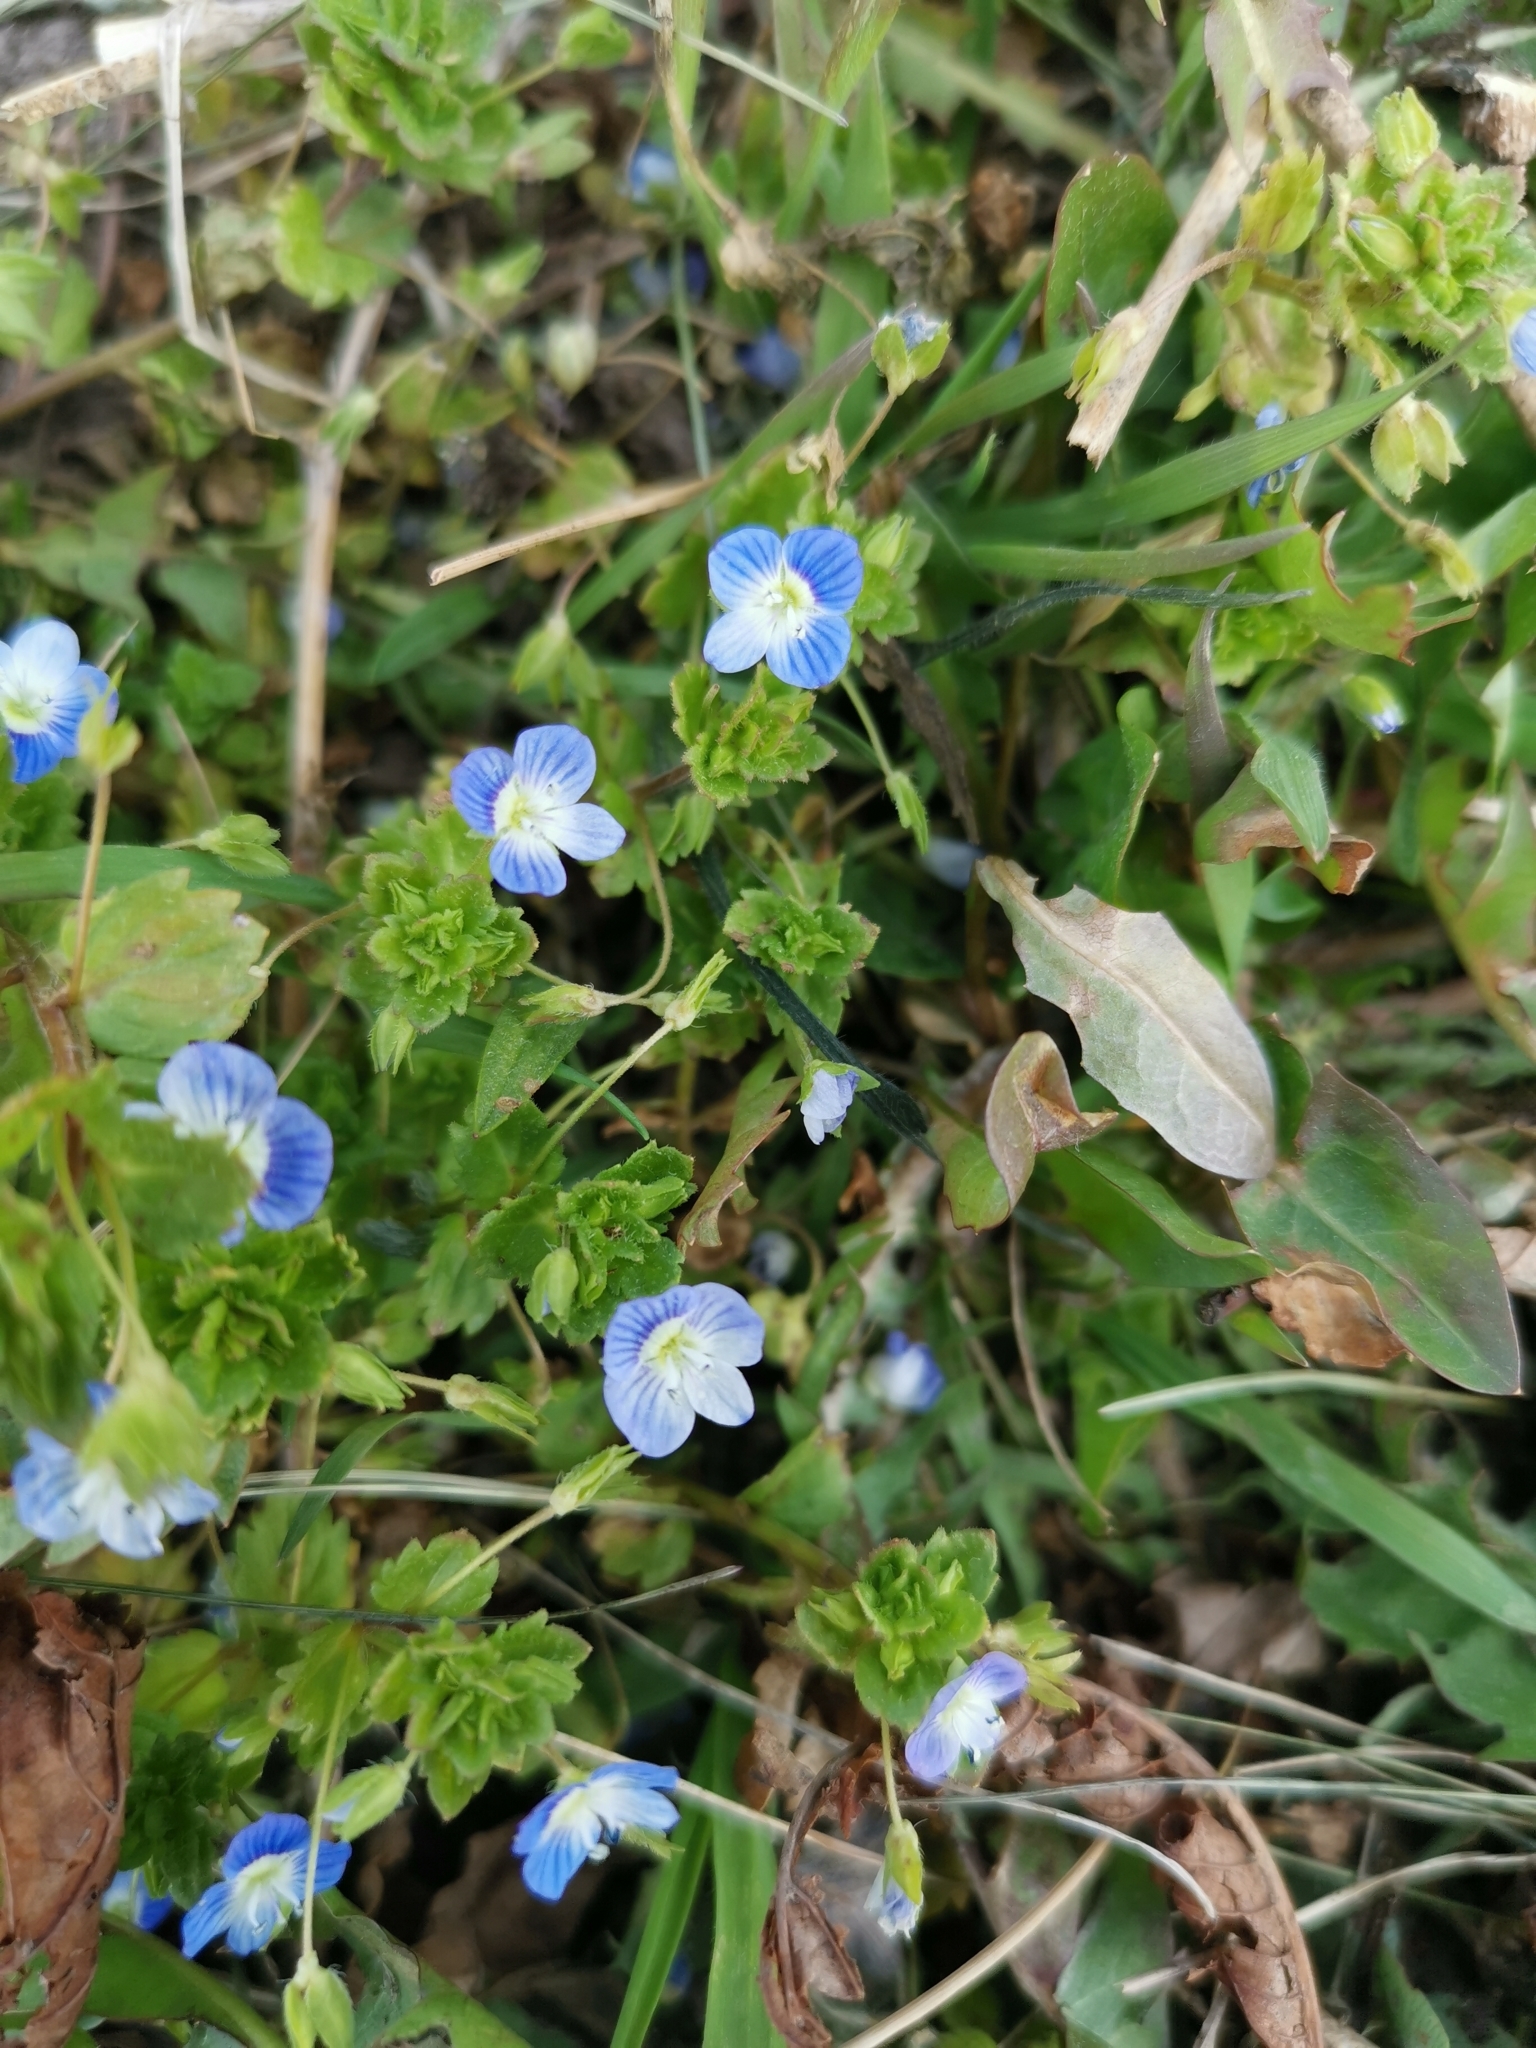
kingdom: Plantae
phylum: Tracheophyta
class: Magnoliopsida
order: Lamiales
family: Plantaginaceae
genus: Veronica
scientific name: Veronica persica
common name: Common field-speedwell
